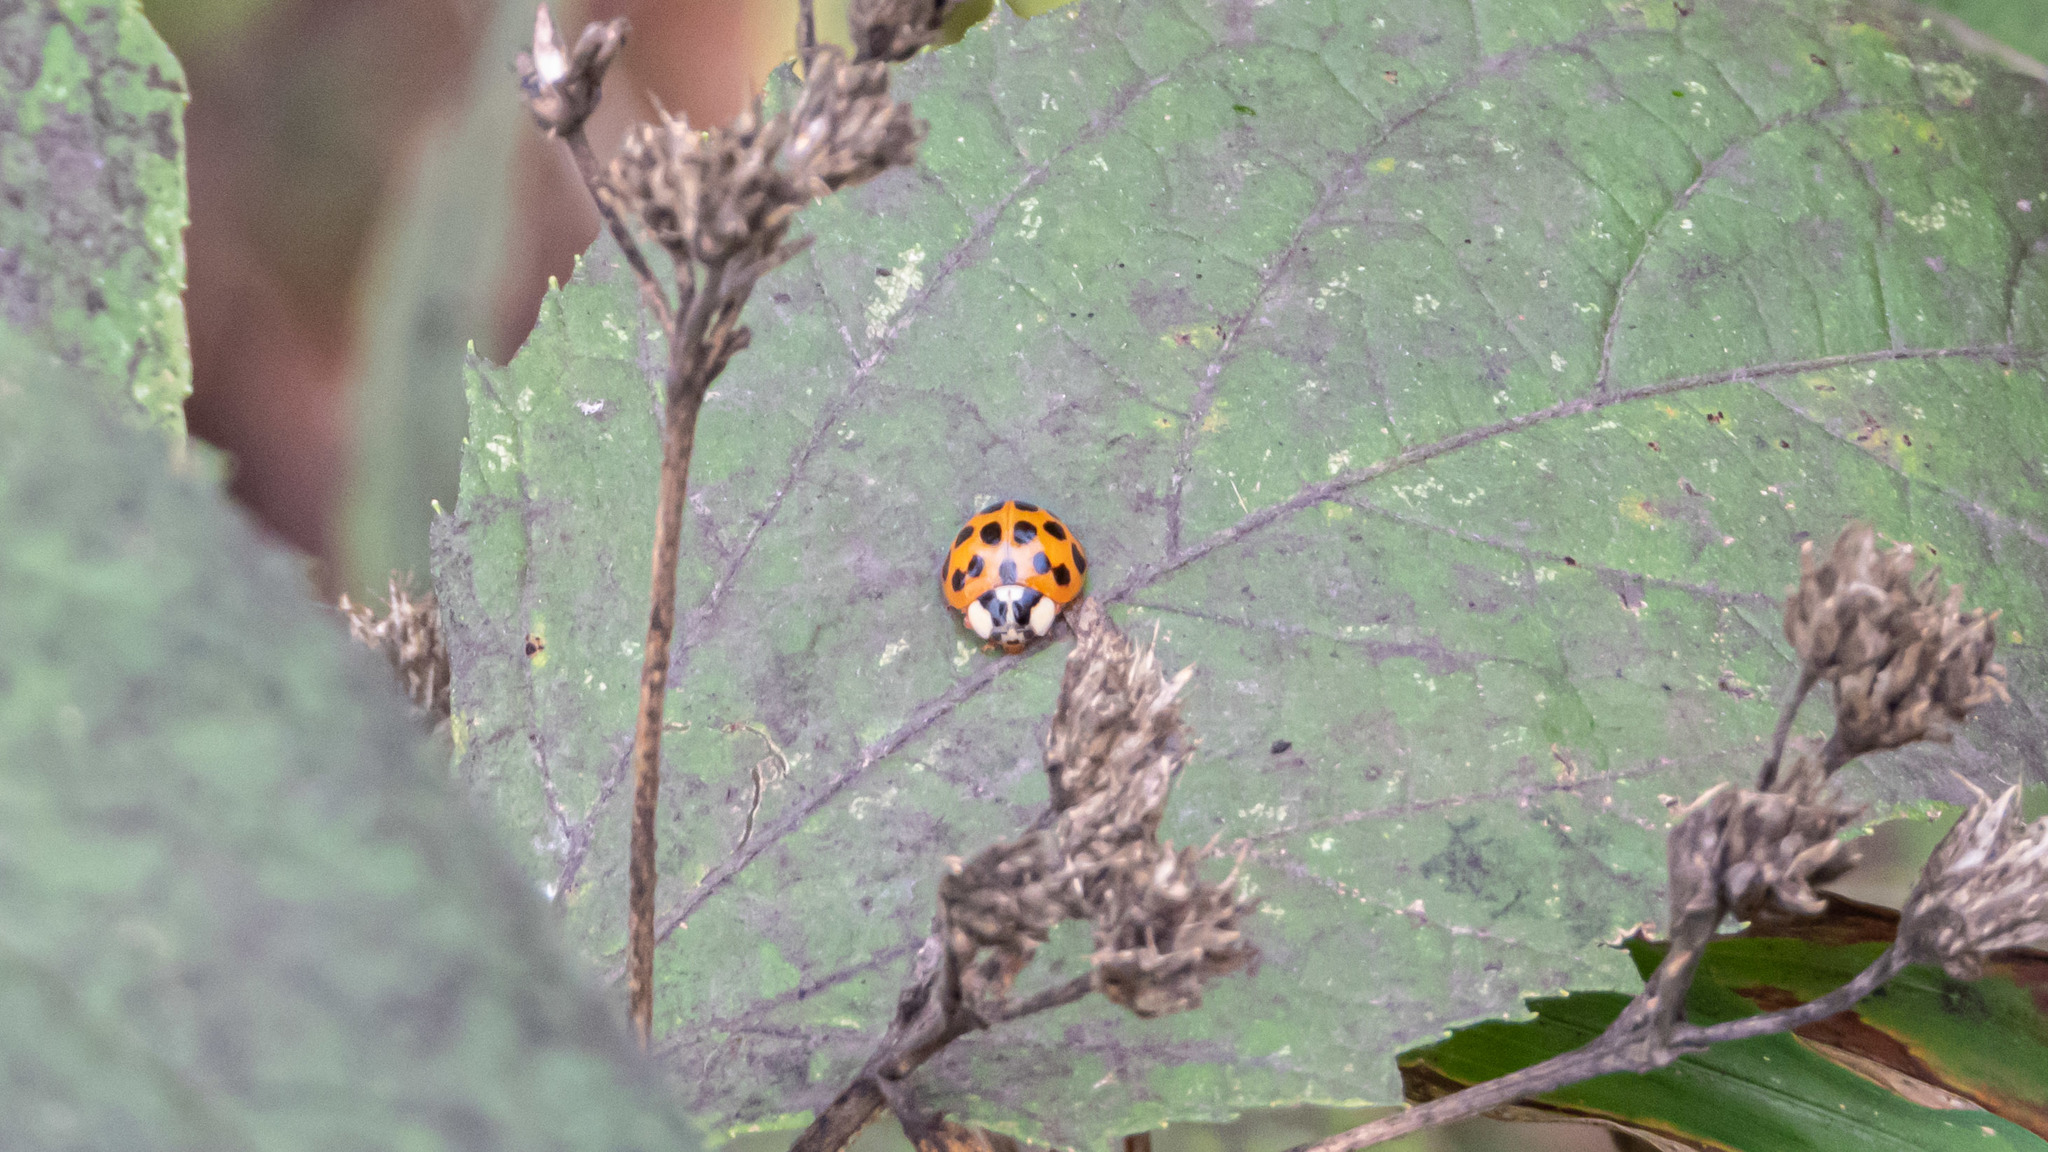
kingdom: Animalia
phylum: Arthropoda
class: Insecta
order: Coleoptera
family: Coccinellidae
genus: Harmonia
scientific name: Harmonia axyridis
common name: Harlequin ladybird
